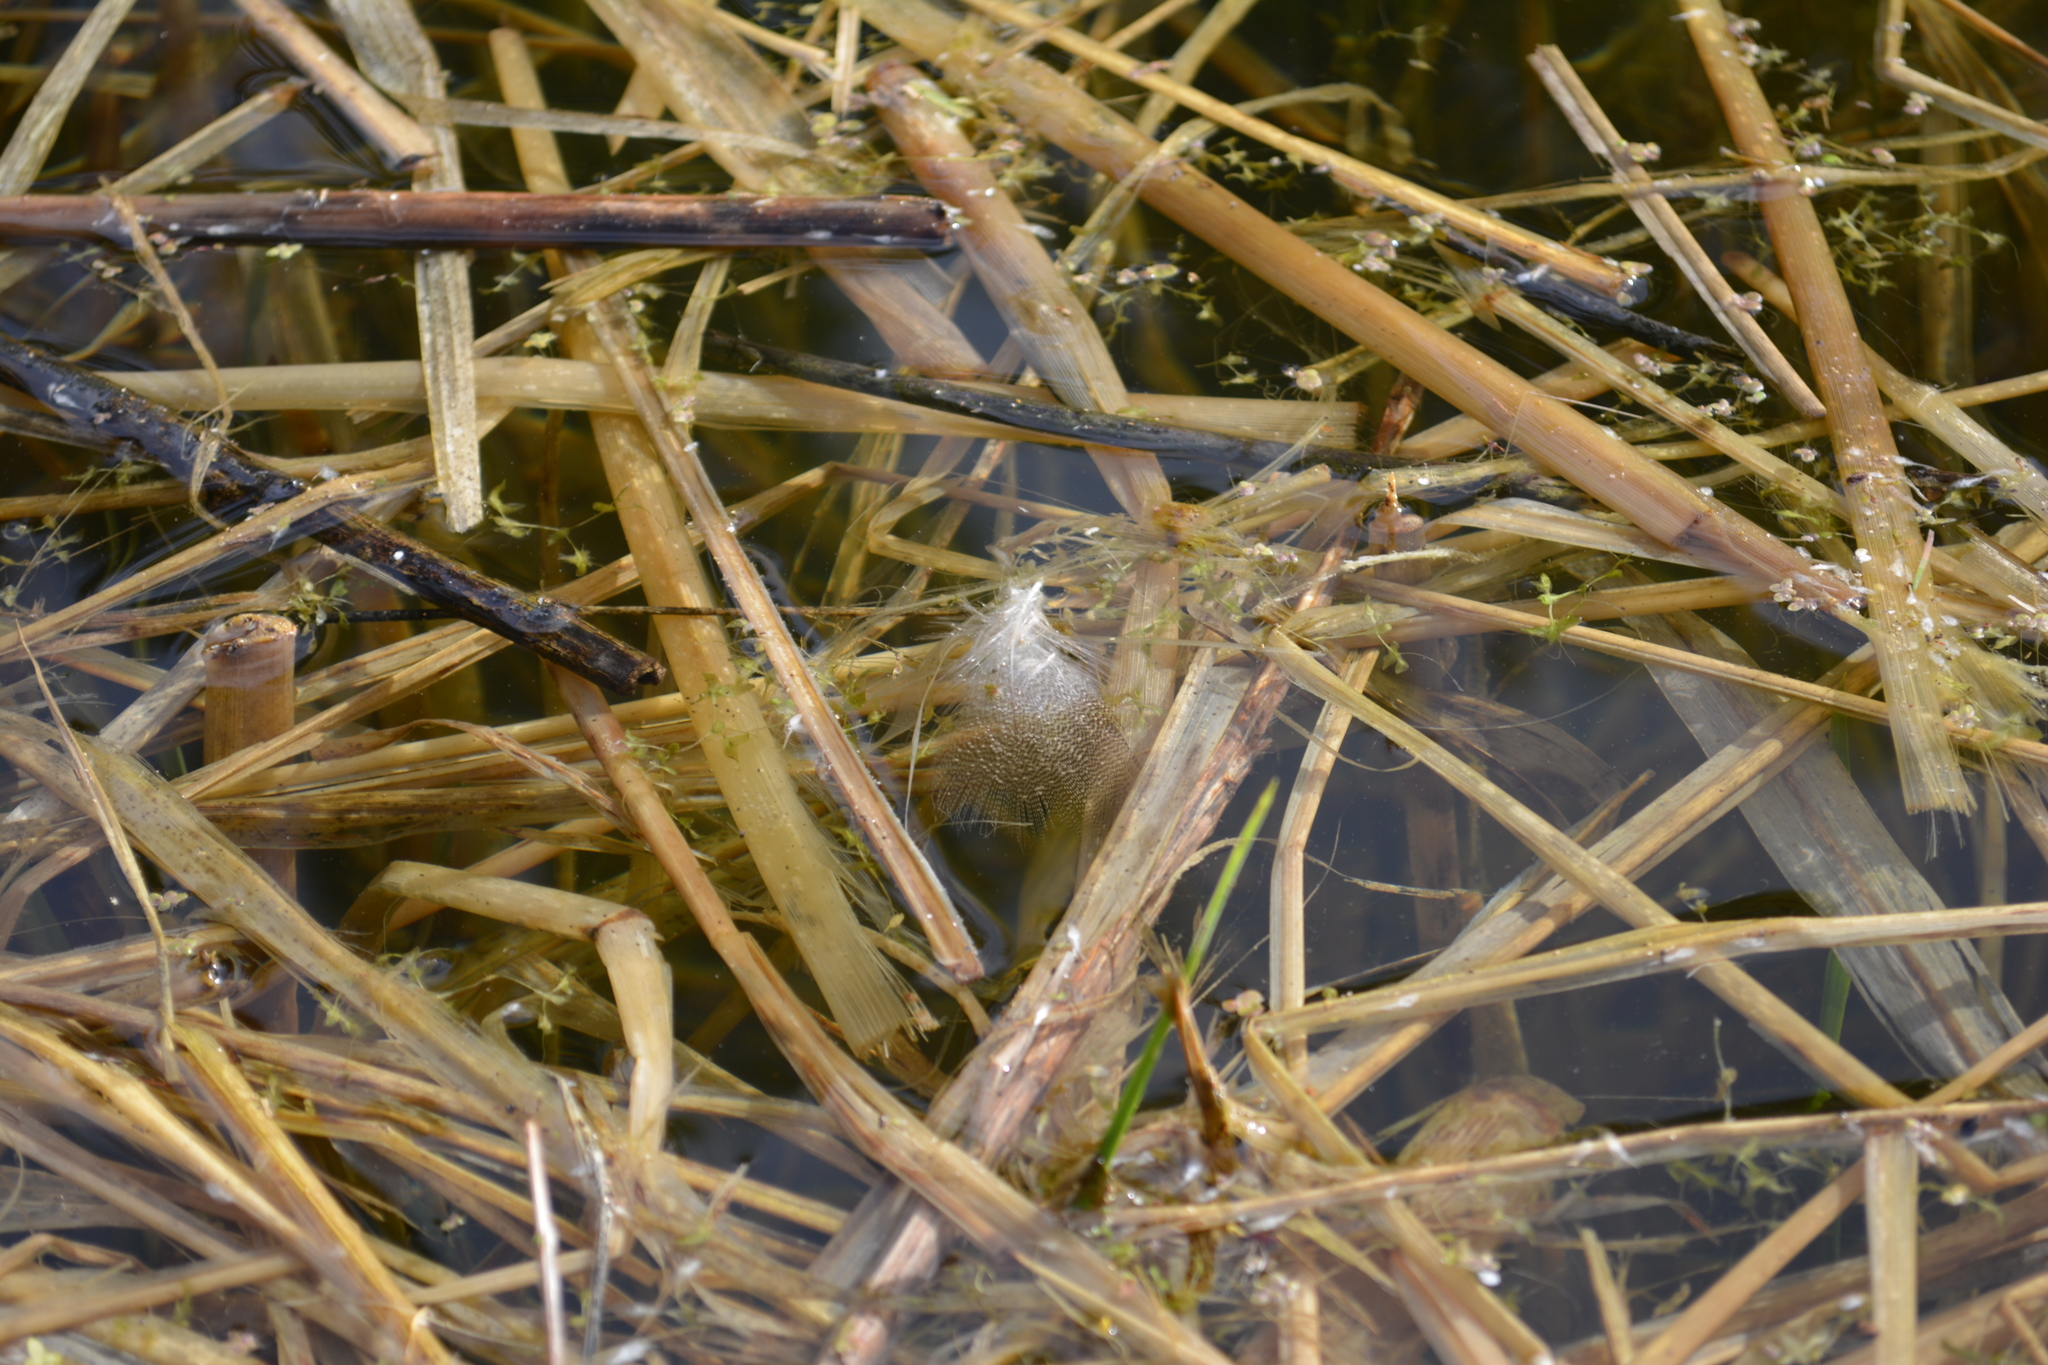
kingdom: Animalia
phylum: Chordata
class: Aves
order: Anseriformes
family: Anatidae
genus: Anas
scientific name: Anas platyrhynchos
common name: Mallard
